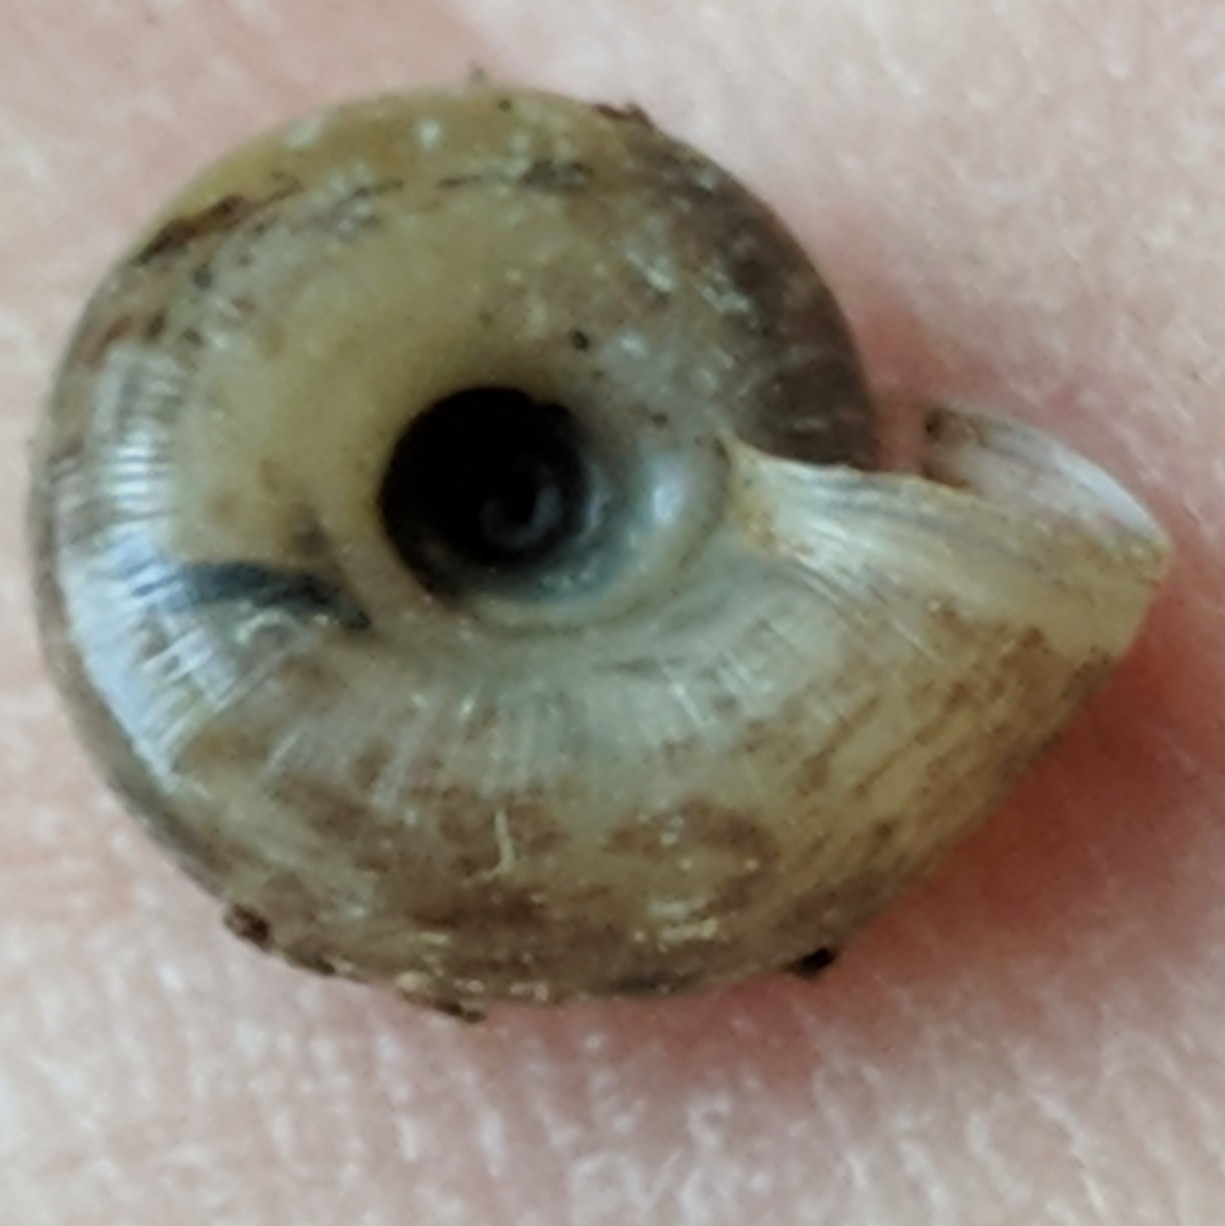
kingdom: Animalia
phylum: Mollusca
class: Gastropoda
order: Stylommatophora
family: Haplotrematidae
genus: Haplotrema
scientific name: Haplotrema keepi
